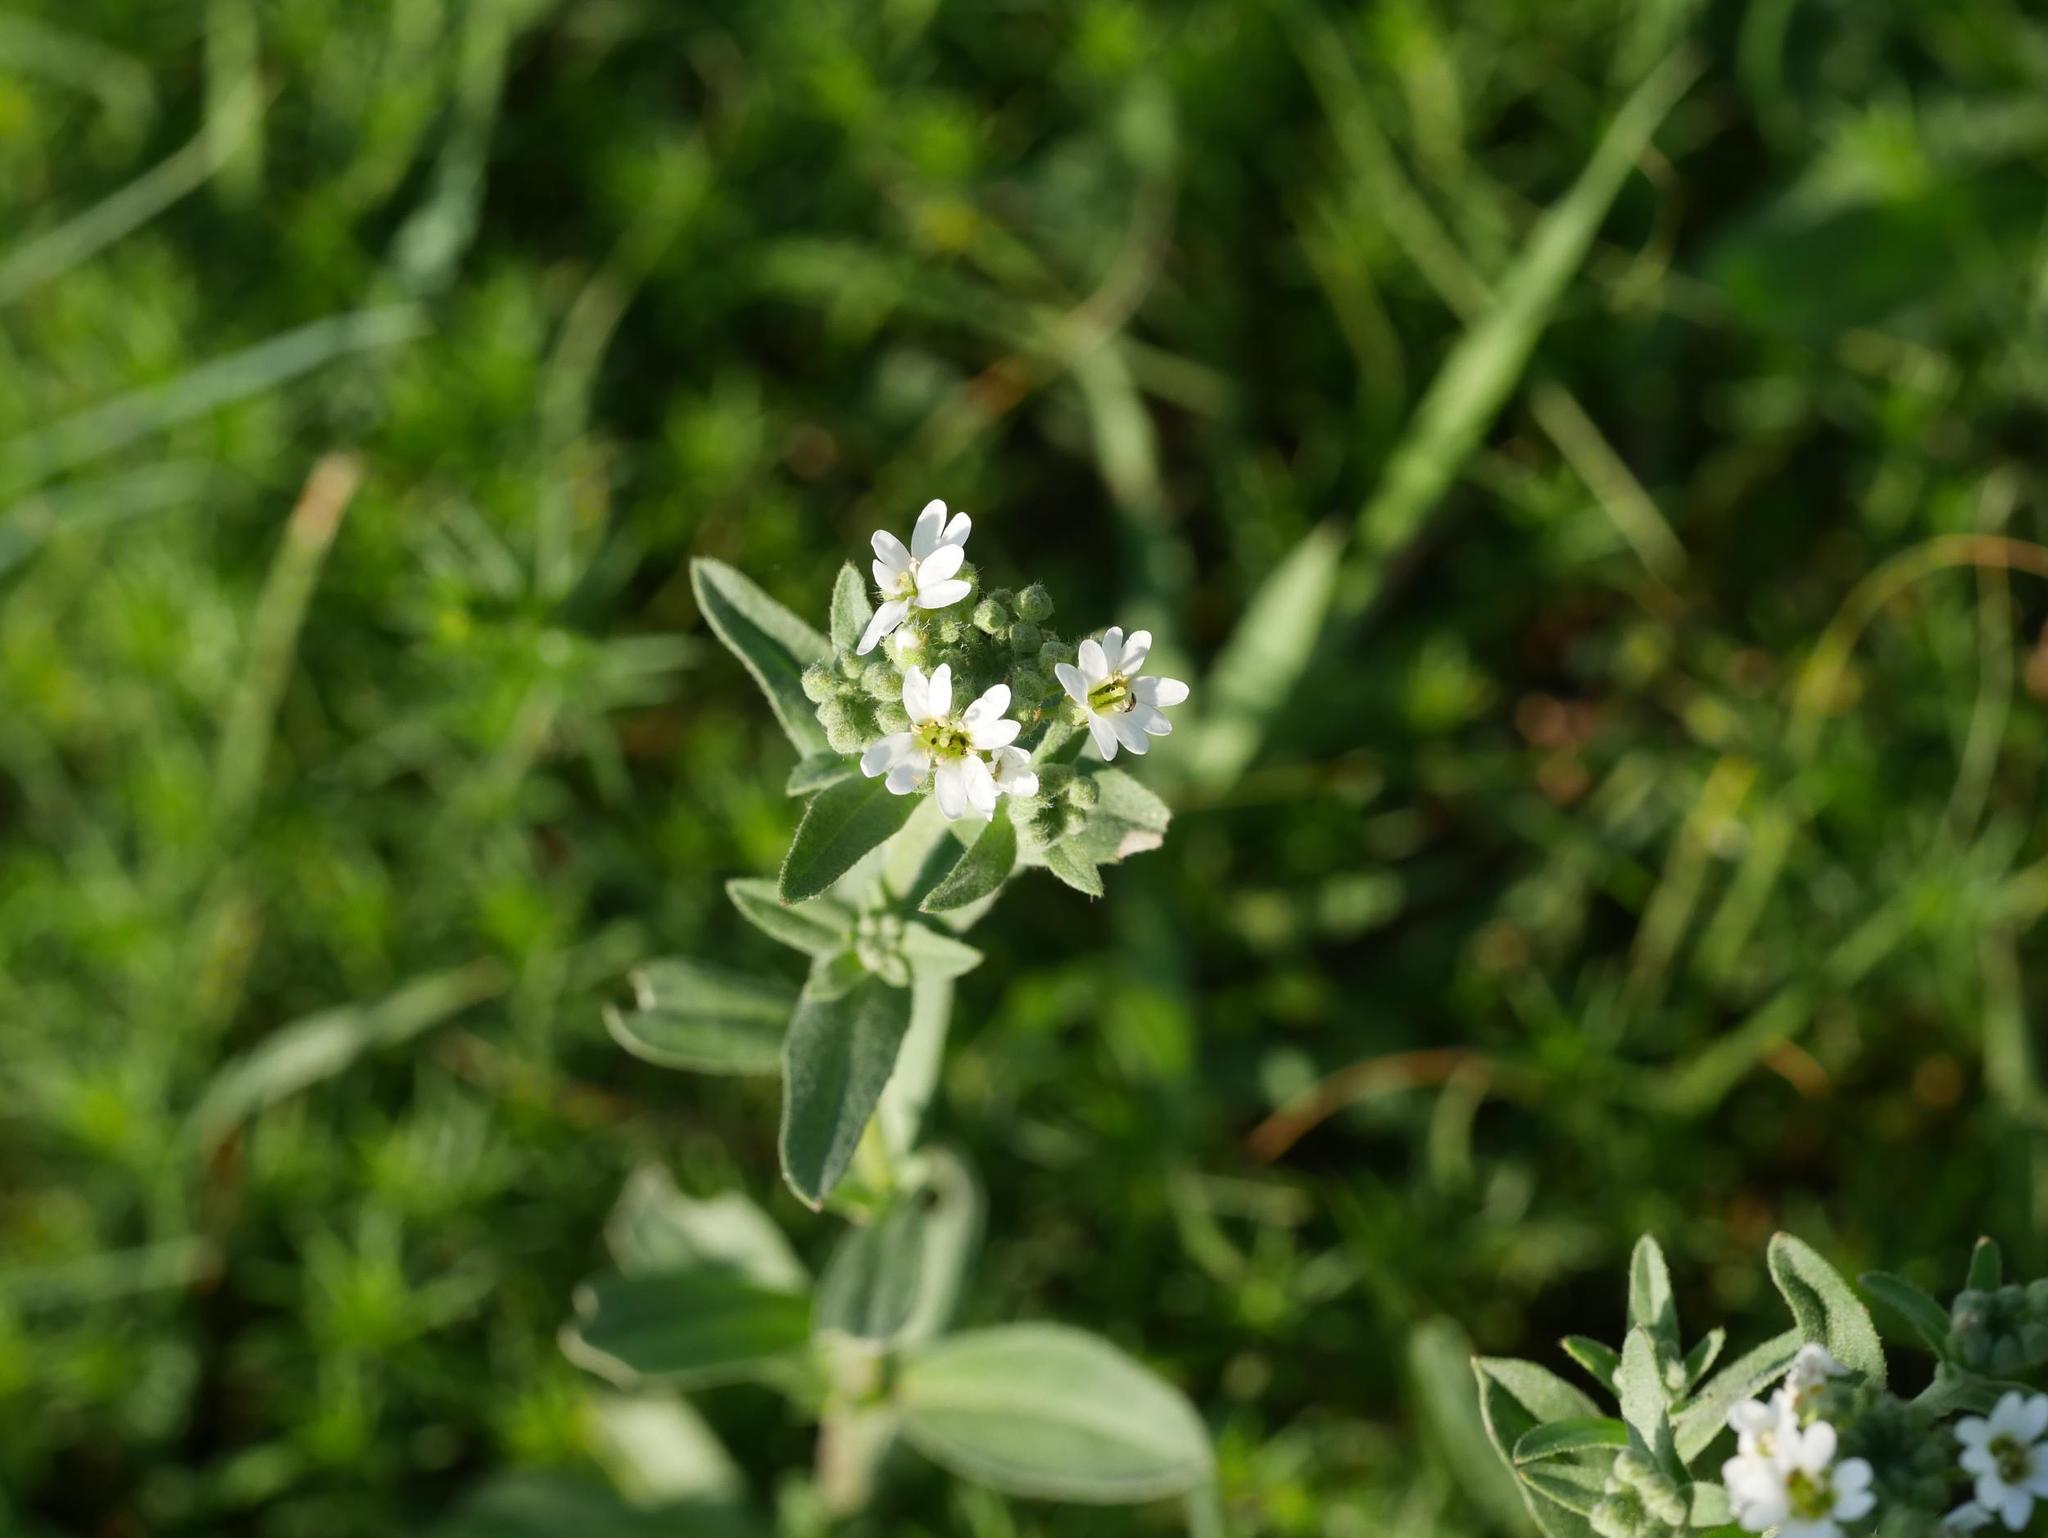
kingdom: Plantae
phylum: Tracheophyta
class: Magnoliopsida
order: Brassicales
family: Brassicaceae
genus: Berteroa
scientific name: Berteroa incana
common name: Hoary alison
